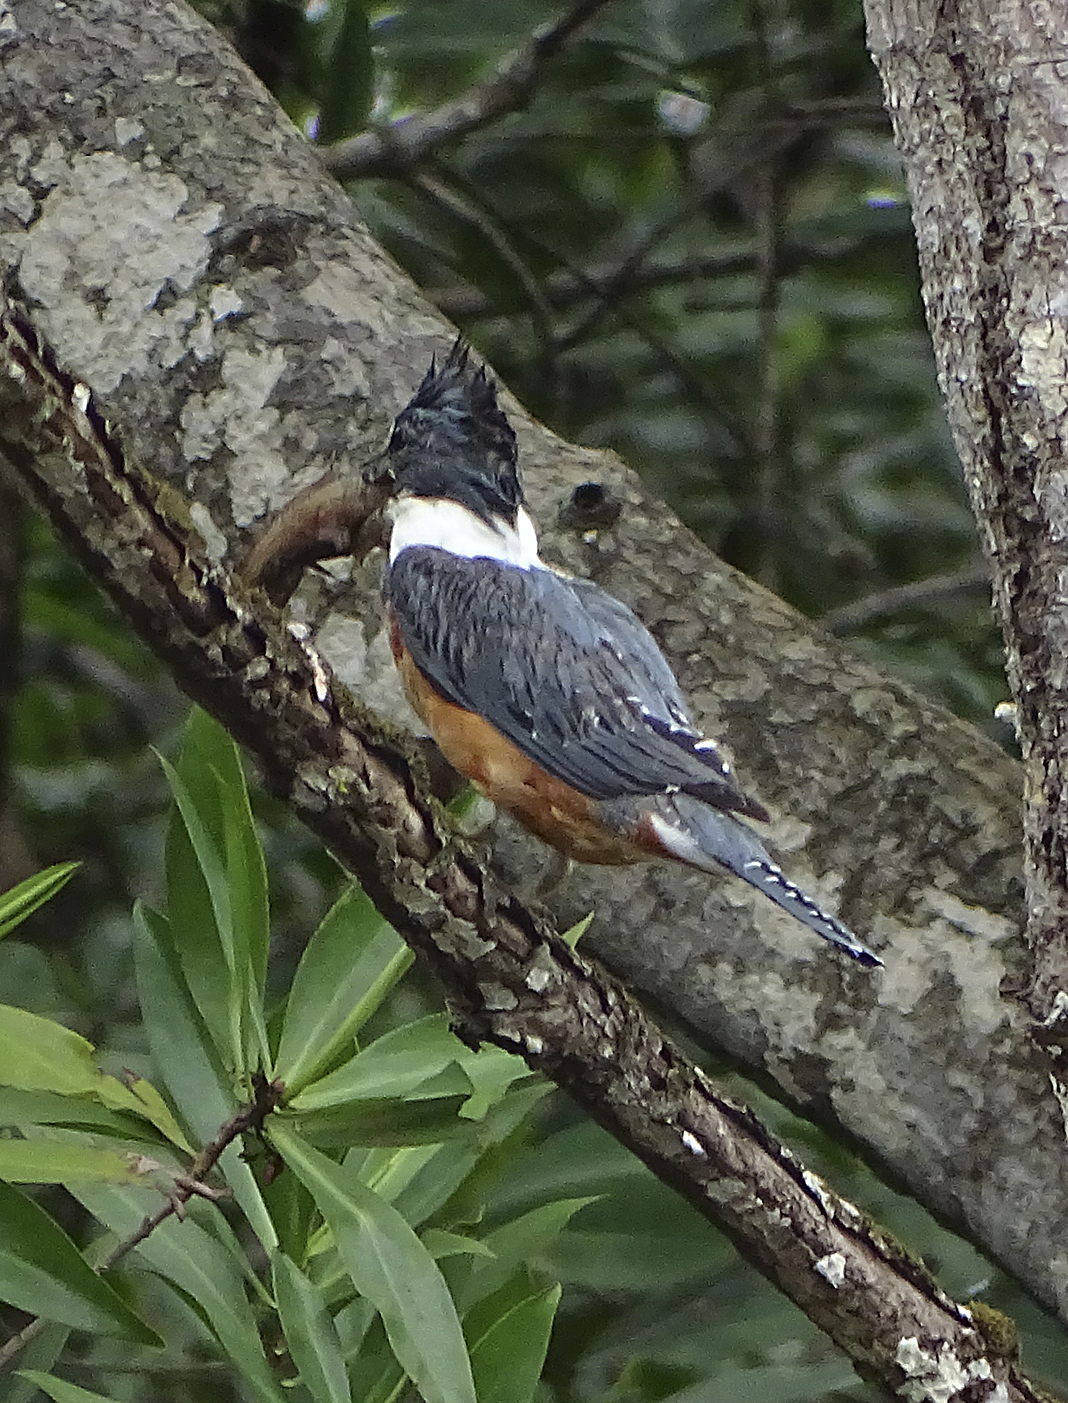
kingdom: Animalia
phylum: Chordata
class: Aves
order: Coraciiformes
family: Alcedinidae
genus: Megaceryle
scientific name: Megaceryle torquata
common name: Ringed kingfisher
